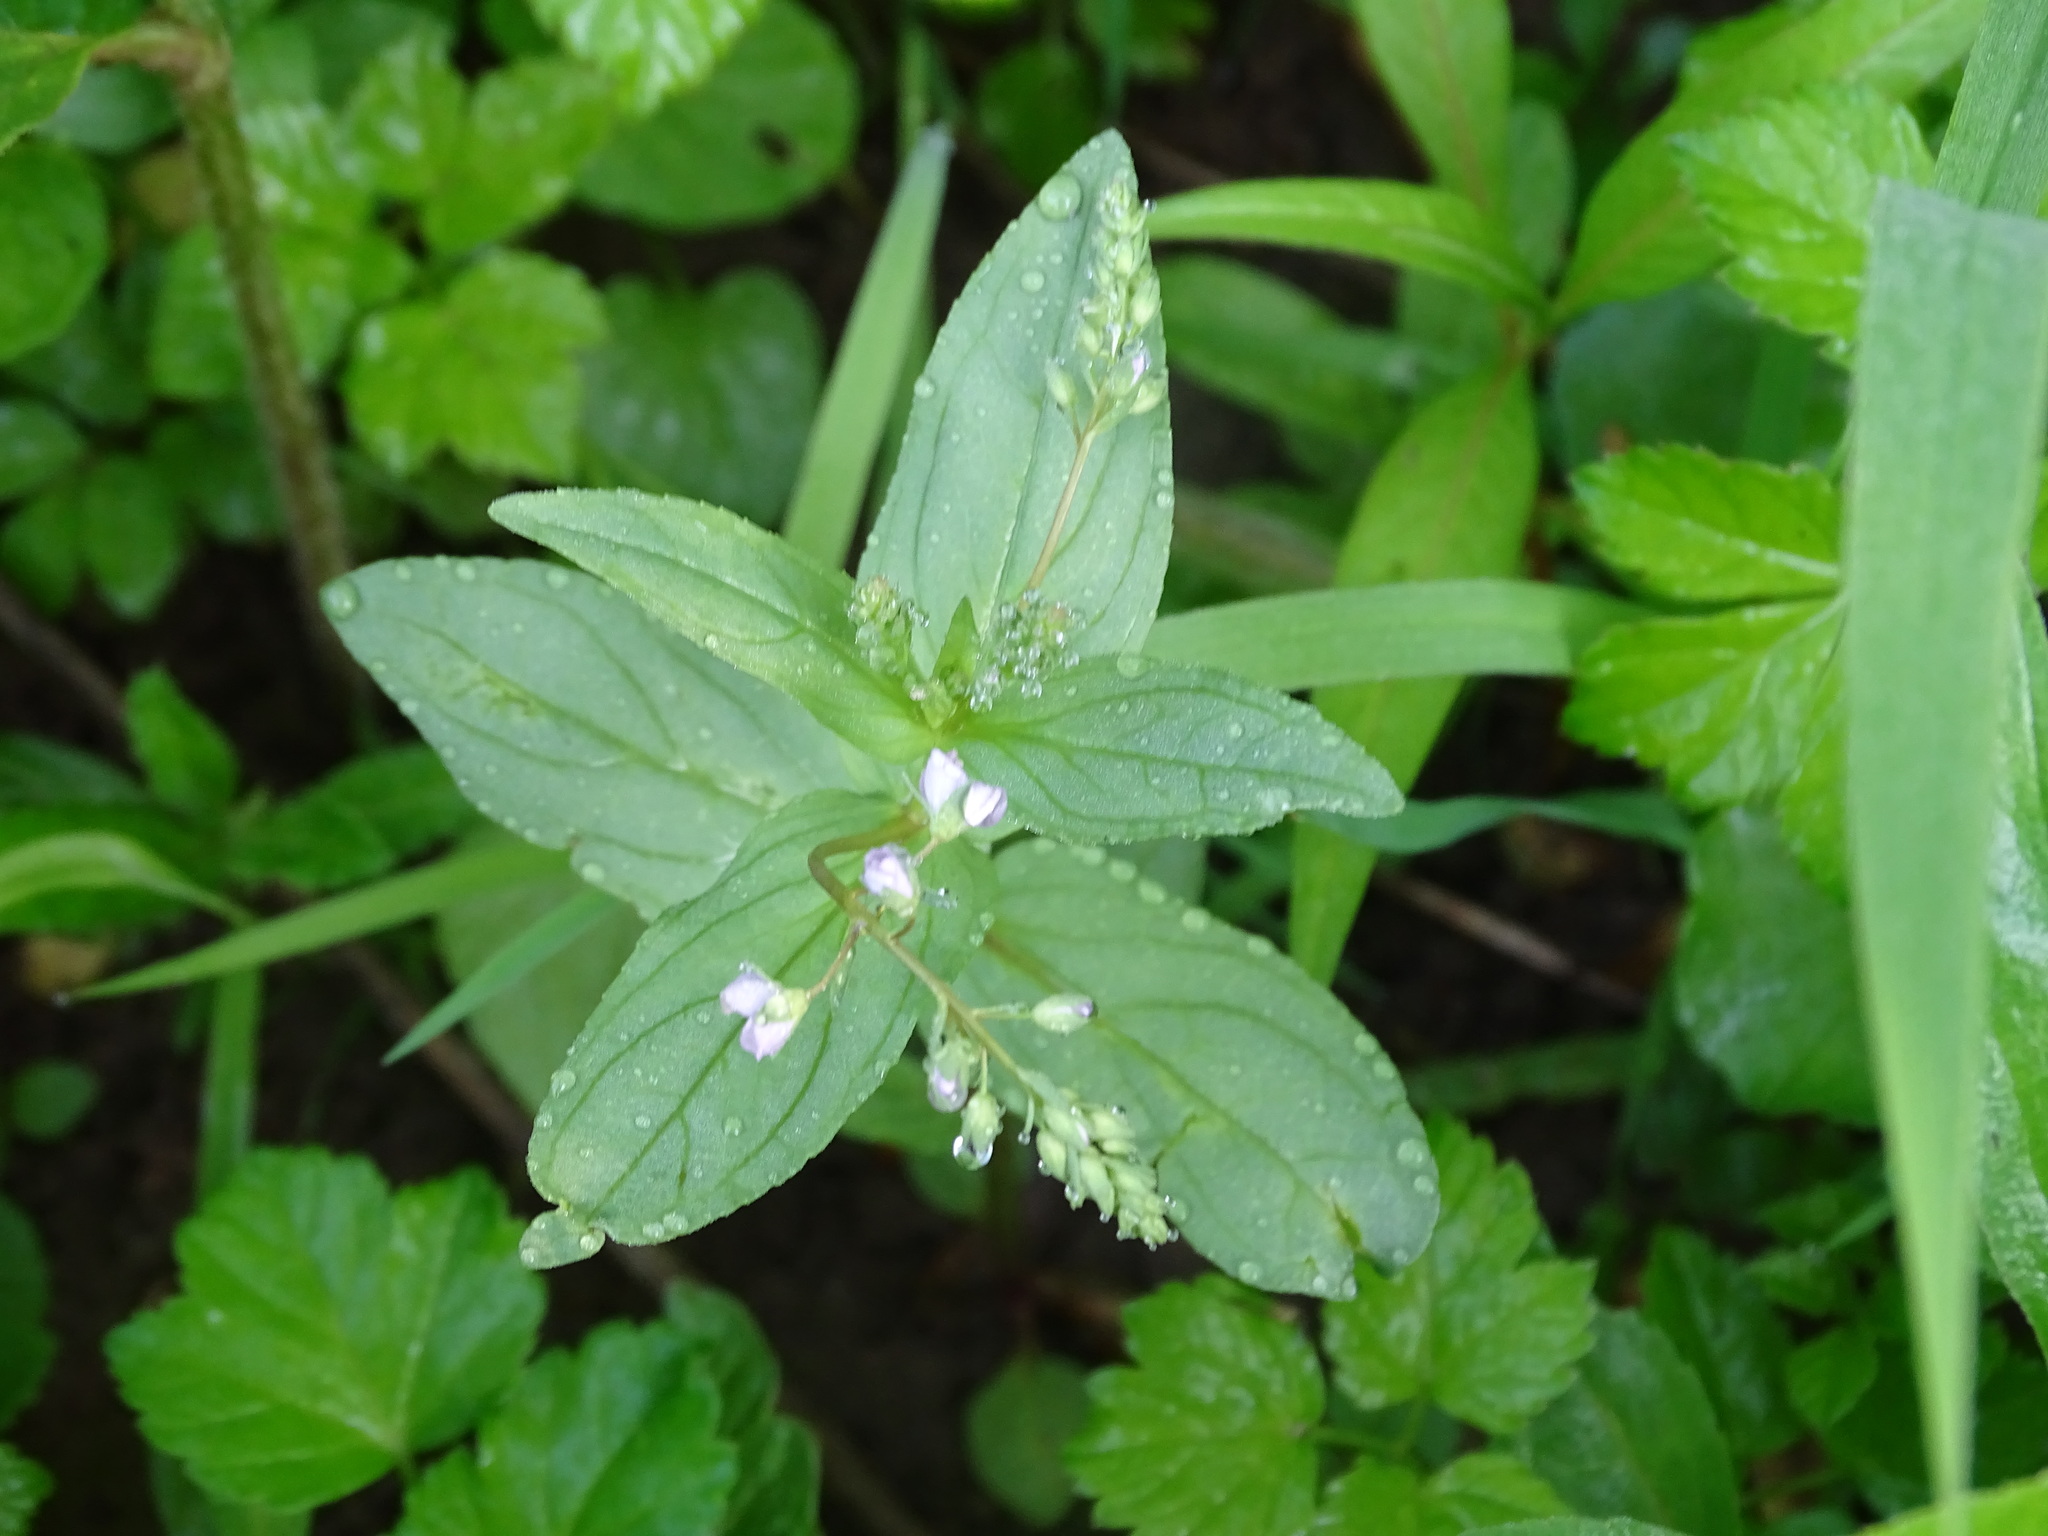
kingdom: Plantae
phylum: Tracheophyta
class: Magnoliopsida
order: Lamiales
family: Plantaginaceae
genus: Veronica
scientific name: Veronica anagallis-aquatica
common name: Water speedwell
